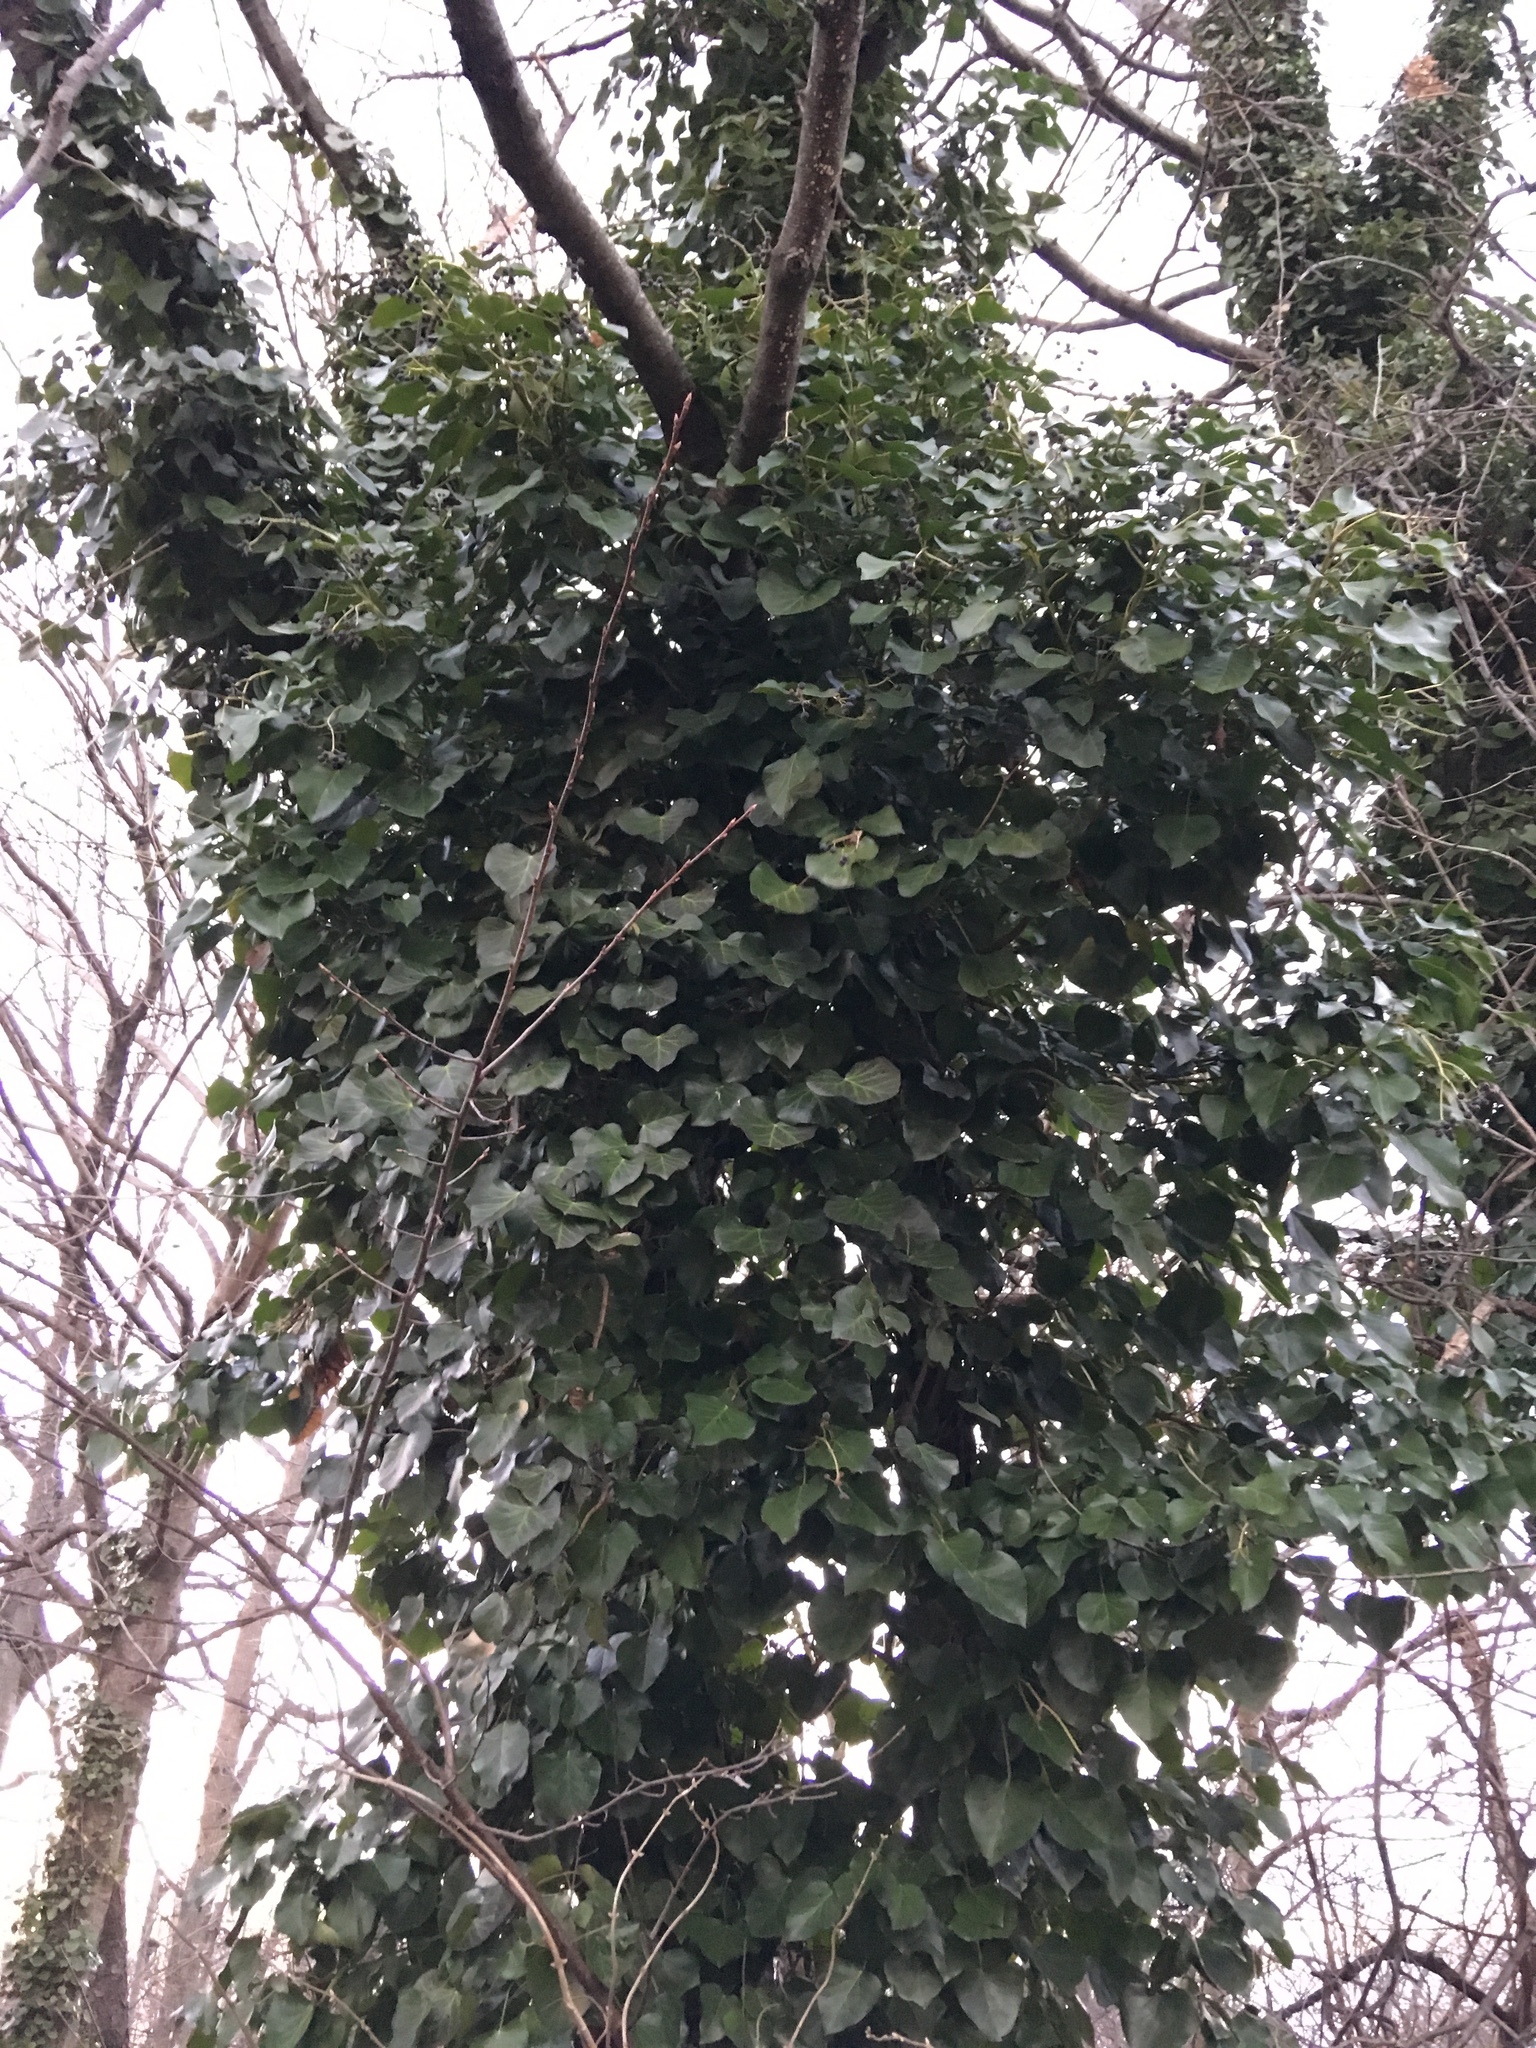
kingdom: Plantae
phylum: Tracheophyta
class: Magnoliopsida
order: Apiales
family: Araliaceae
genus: Hedera
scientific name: Hedera helix
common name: Ivy
